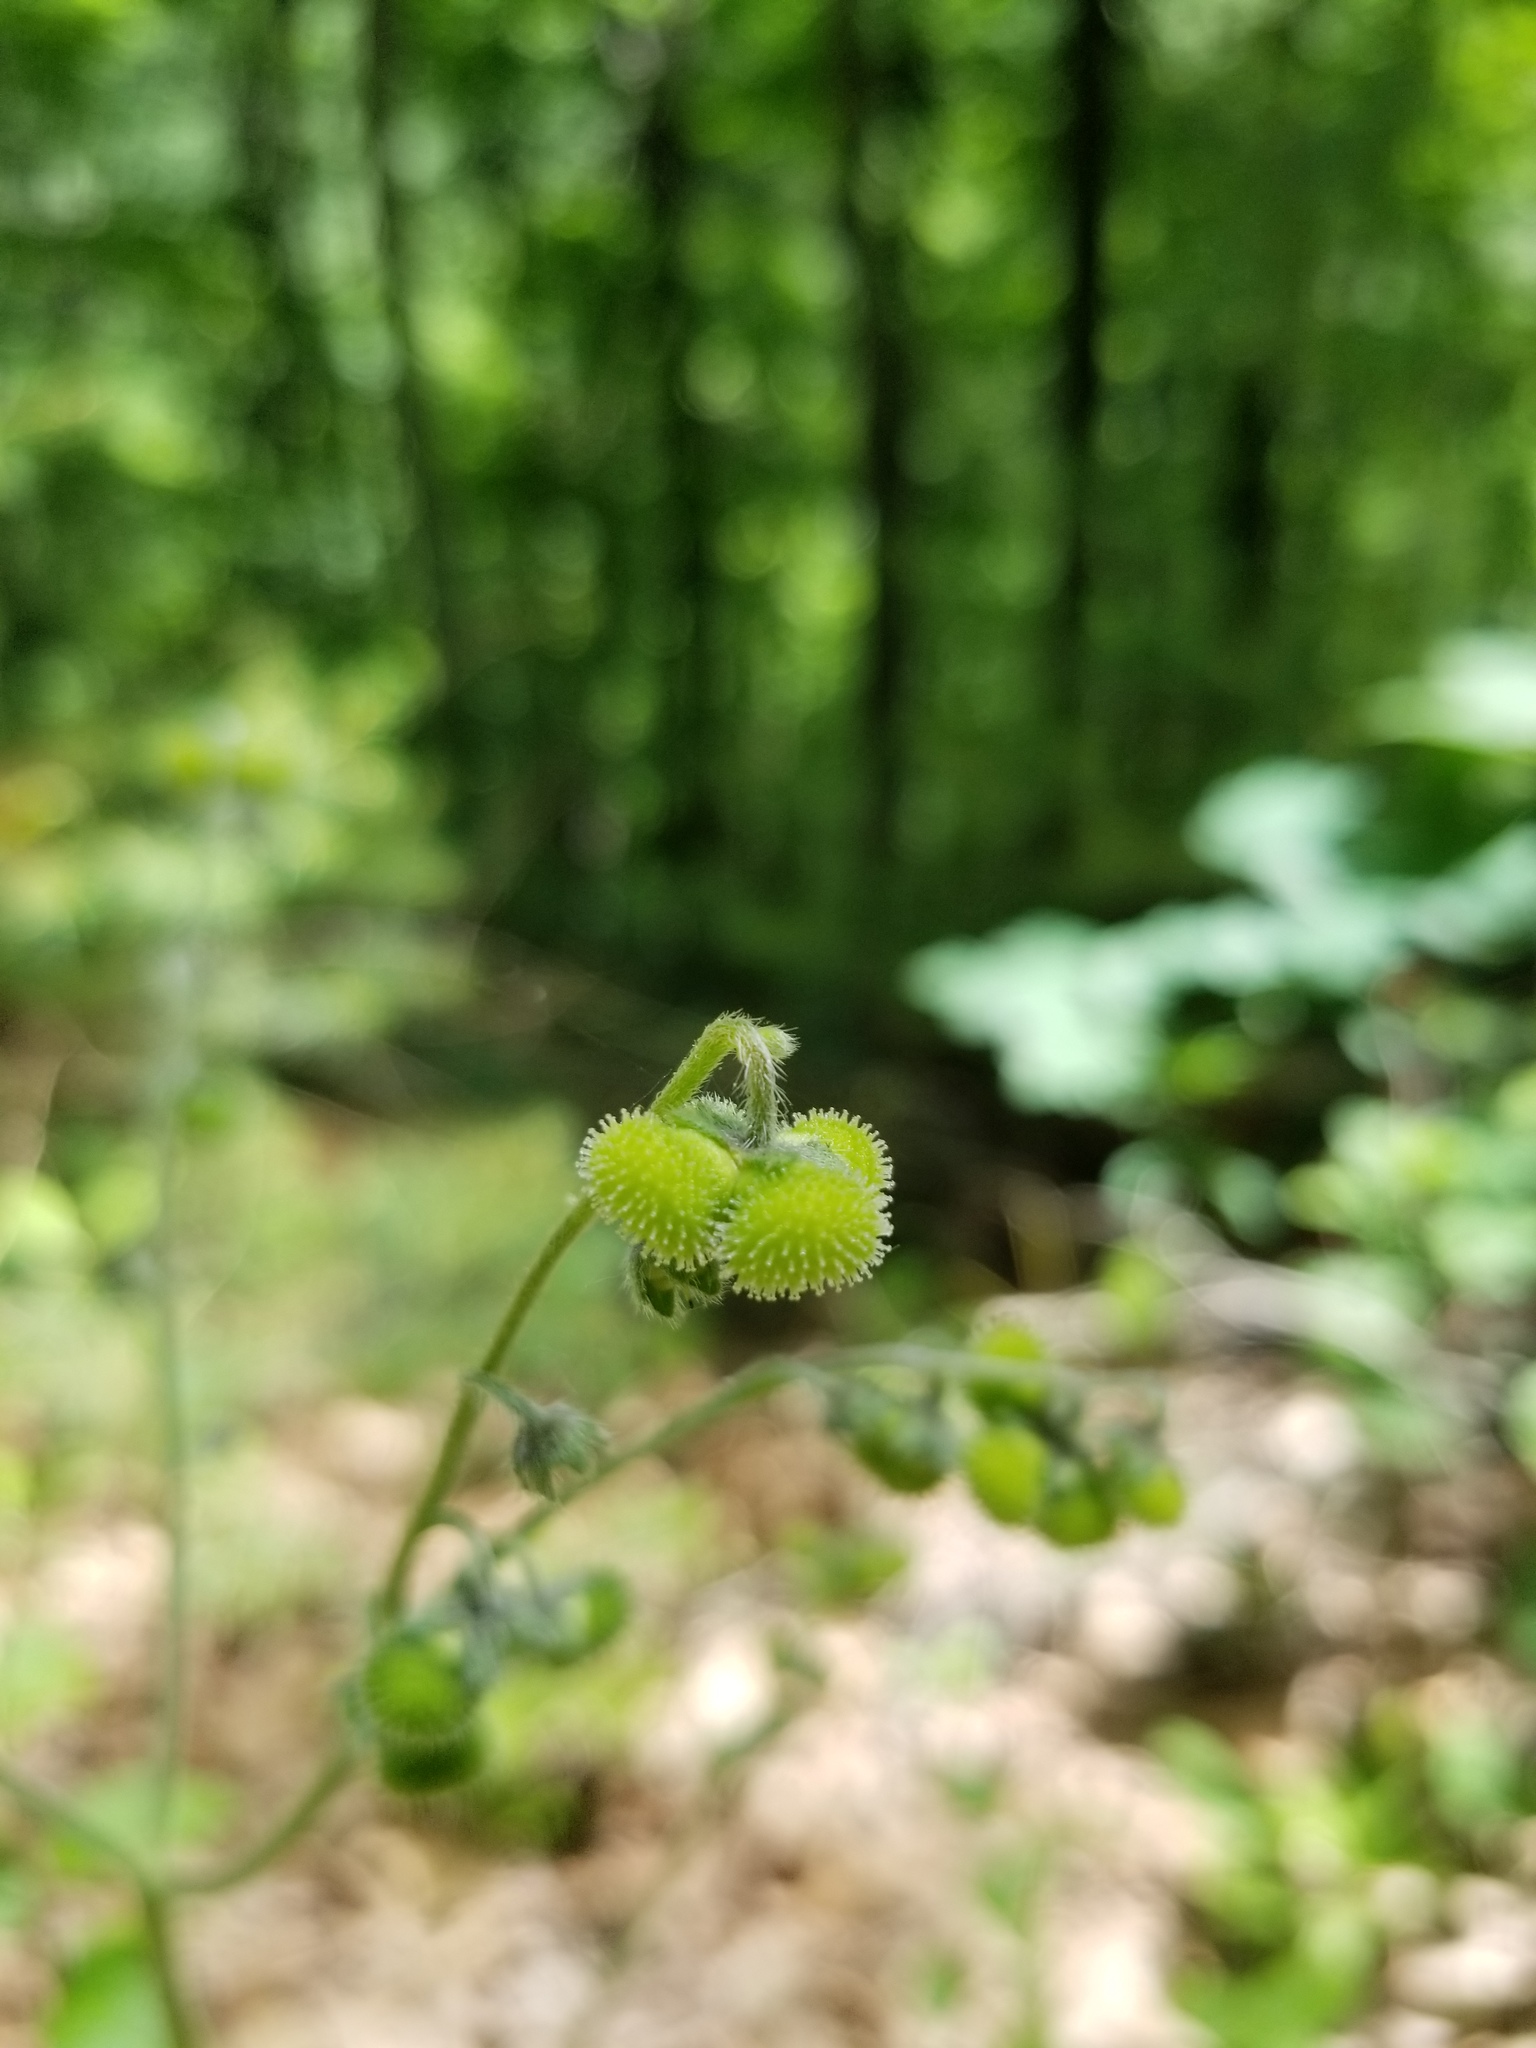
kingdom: Plantae
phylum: Tracheophyta
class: Magnoliopsida
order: Boraginales
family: Boraginaceae
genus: Andersonglossum
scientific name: Andersonglossum virginianum
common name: Wild comfrey
